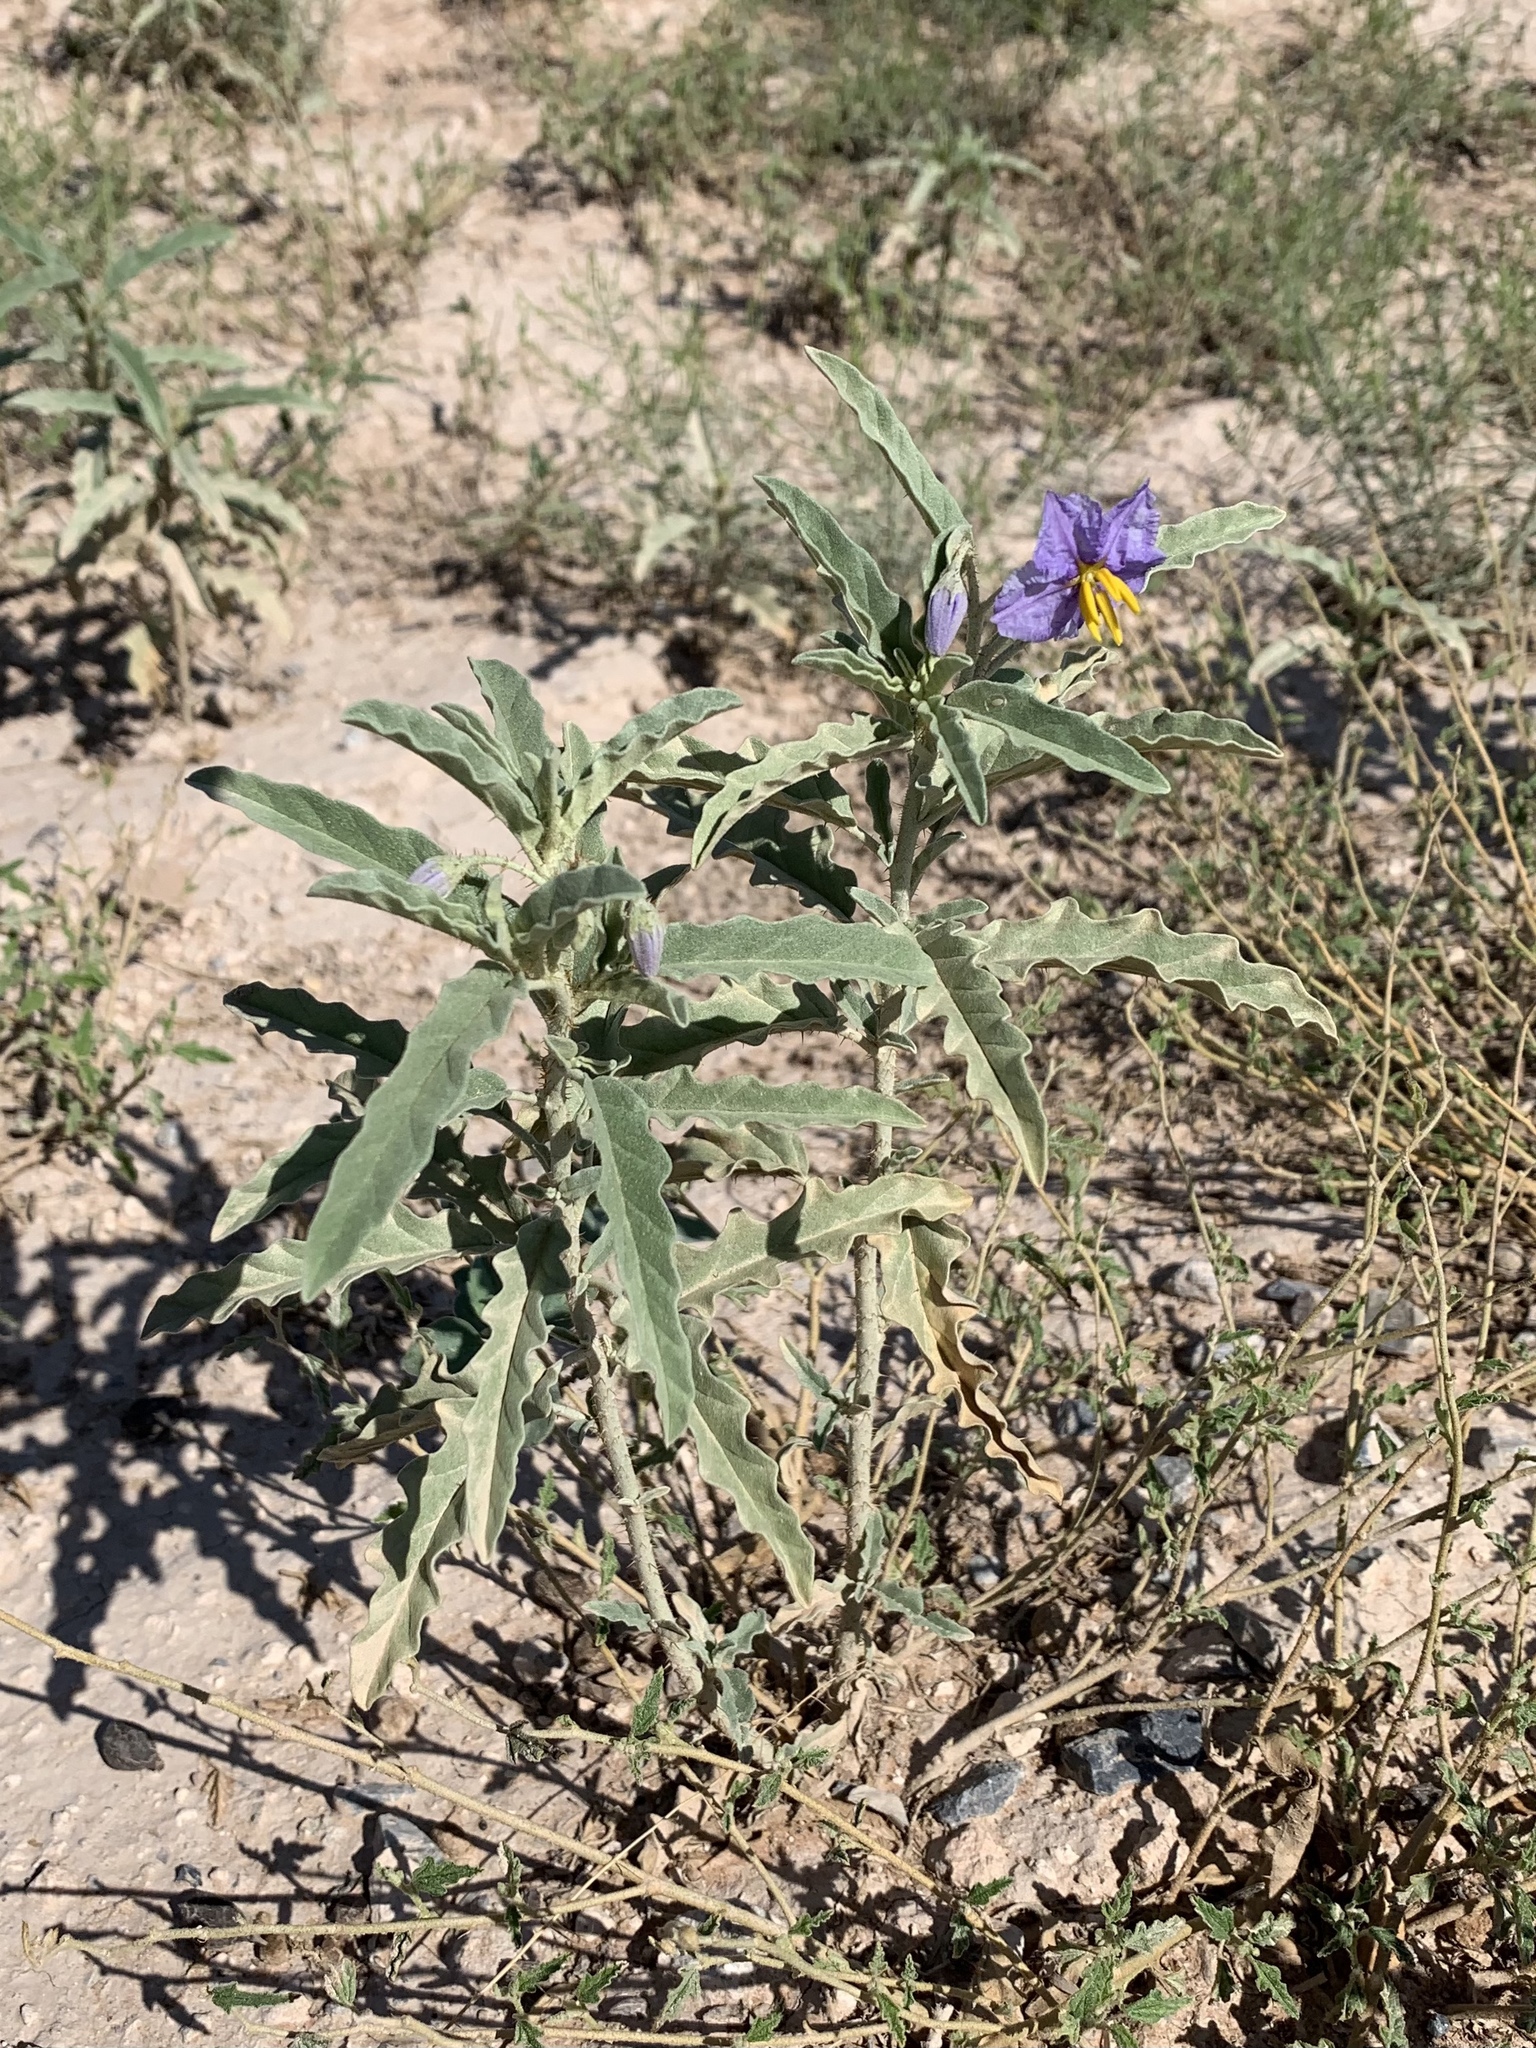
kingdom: Plantae
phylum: Tracheophyta
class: Magnoliopsida
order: Solanales
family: Solanaceae
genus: Solanum
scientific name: Solanum elaeagnifolium
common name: Silverleaf nightshade
